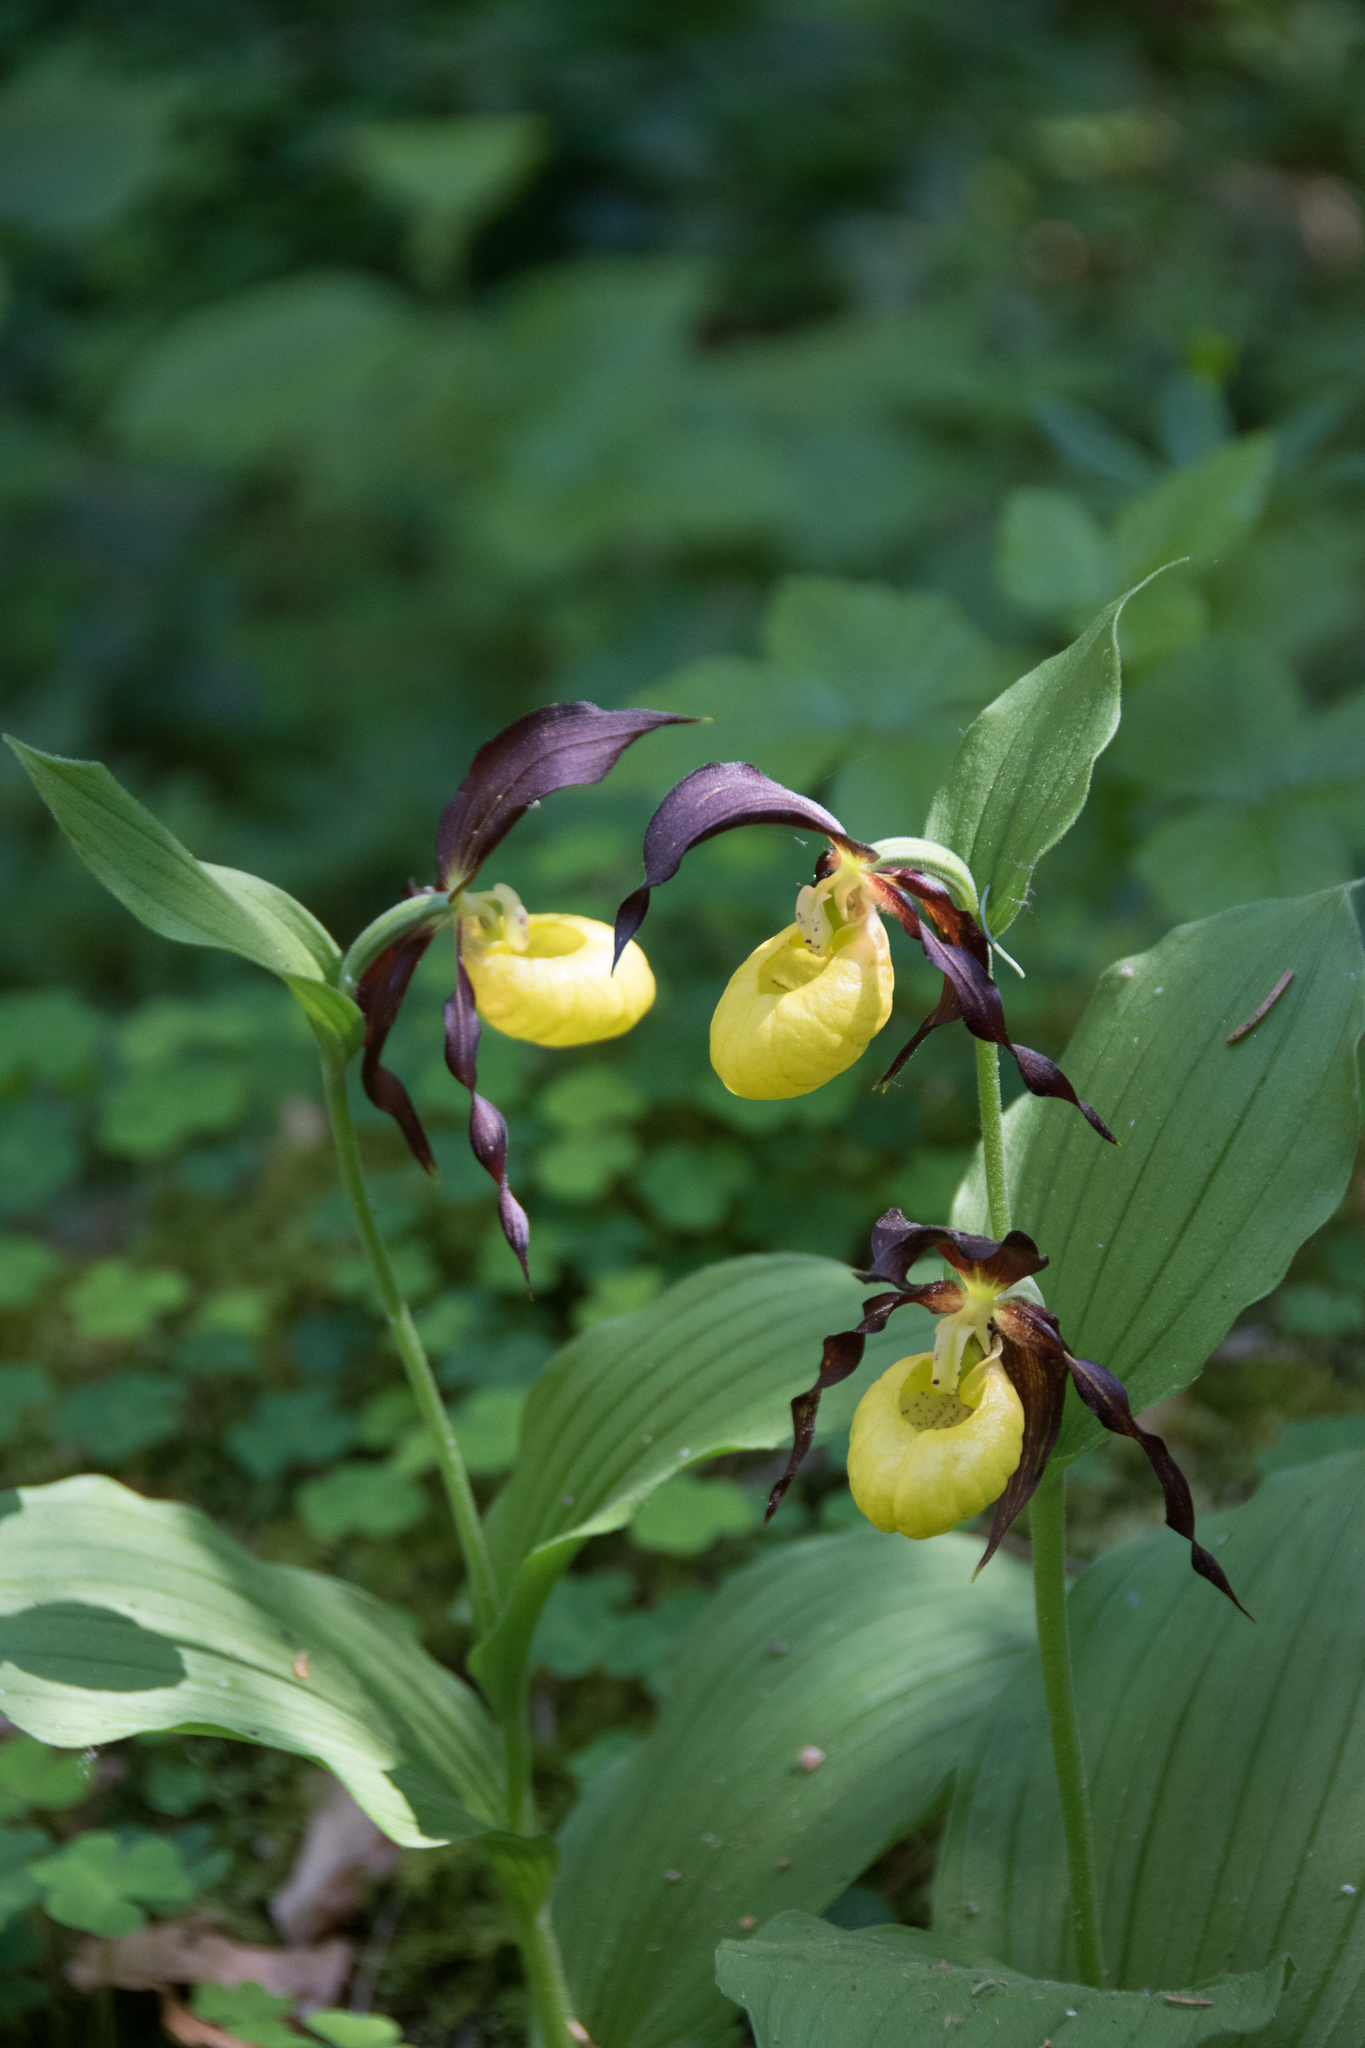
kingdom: Plantae
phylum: Tracheophyta
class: Liliopsida
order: Asparagales
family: Orchidaceae
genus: Cypripedium
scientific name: Cypripedium calceolus
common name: Lady's-slipper
